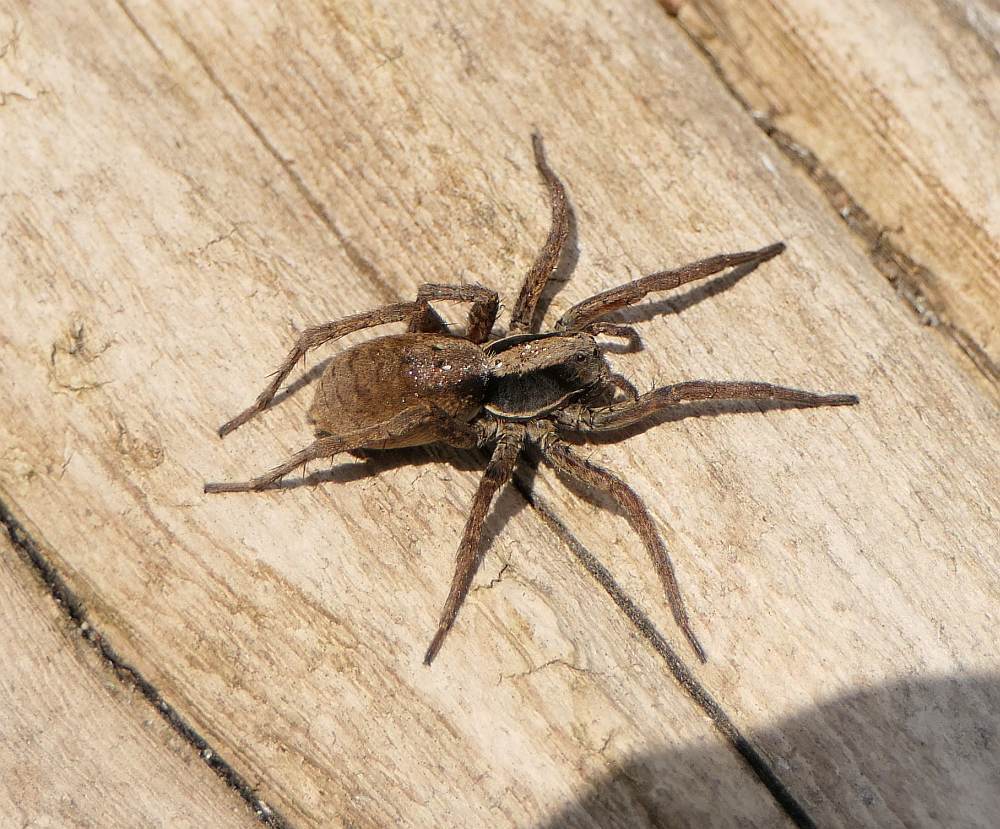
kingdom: Animalia
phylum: Arthropoda
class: Arachnida
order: Araneae
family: Lycosidae
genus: Hogna
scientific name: Hogna frondicola
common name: Forest wolf spider
